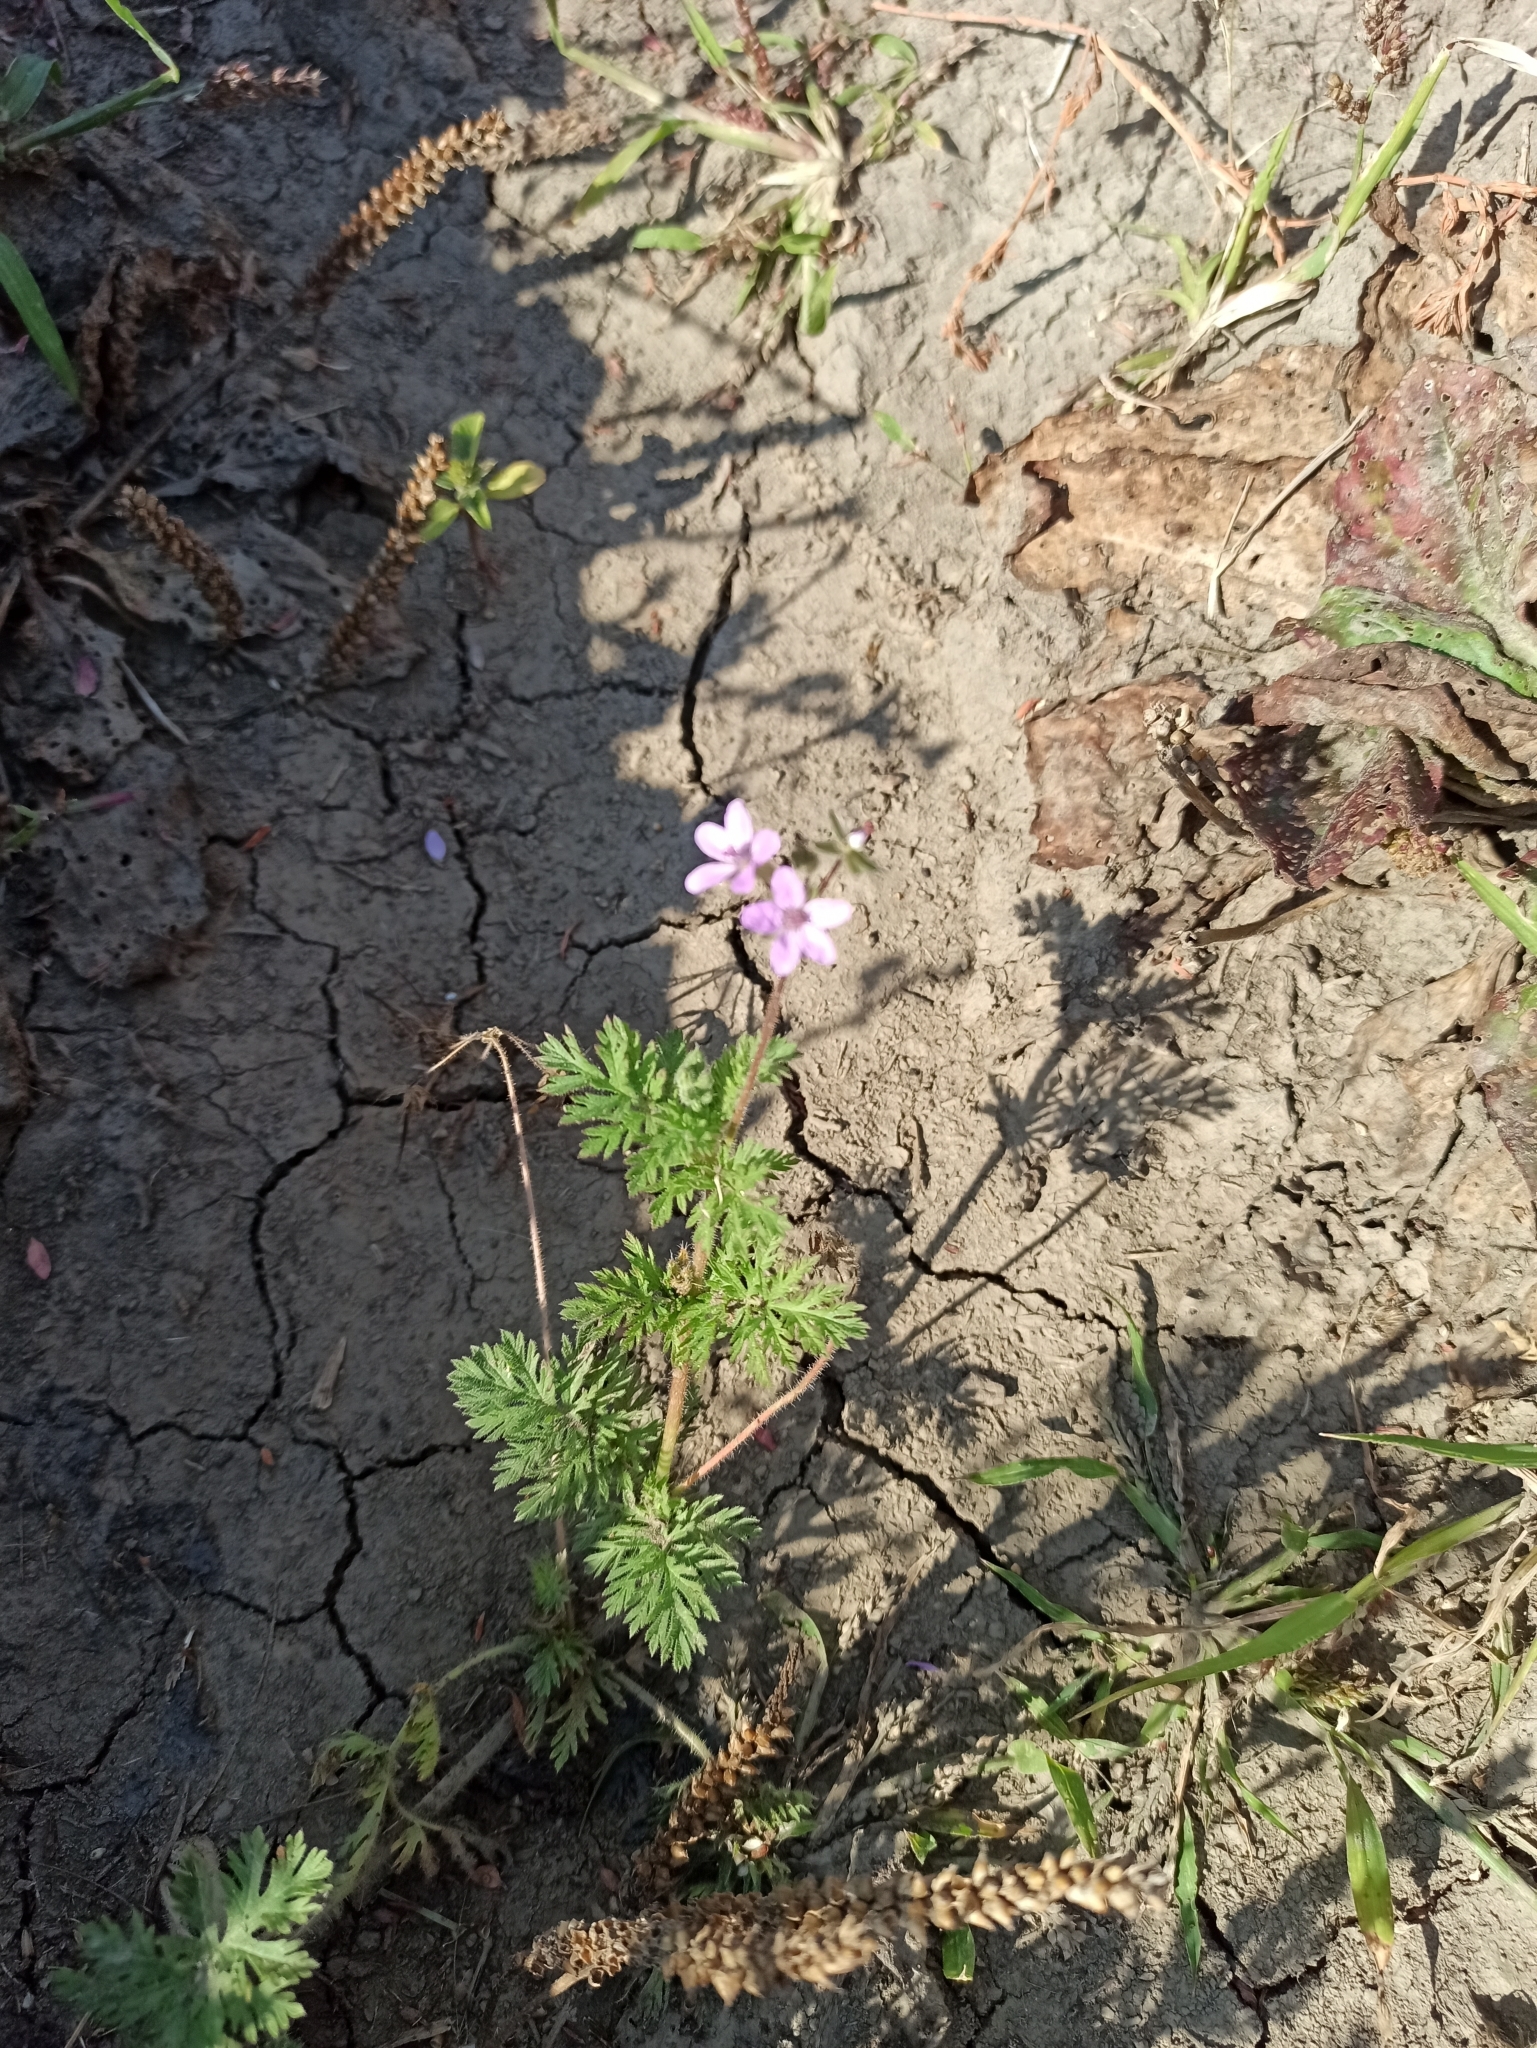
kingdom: Plantae
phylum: Tracheophyta
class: Magnoliopsida
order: Geraniales
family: Geraniaceae
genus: Erodium
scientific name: Erodium cicutarium
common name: Common stork's-bill
